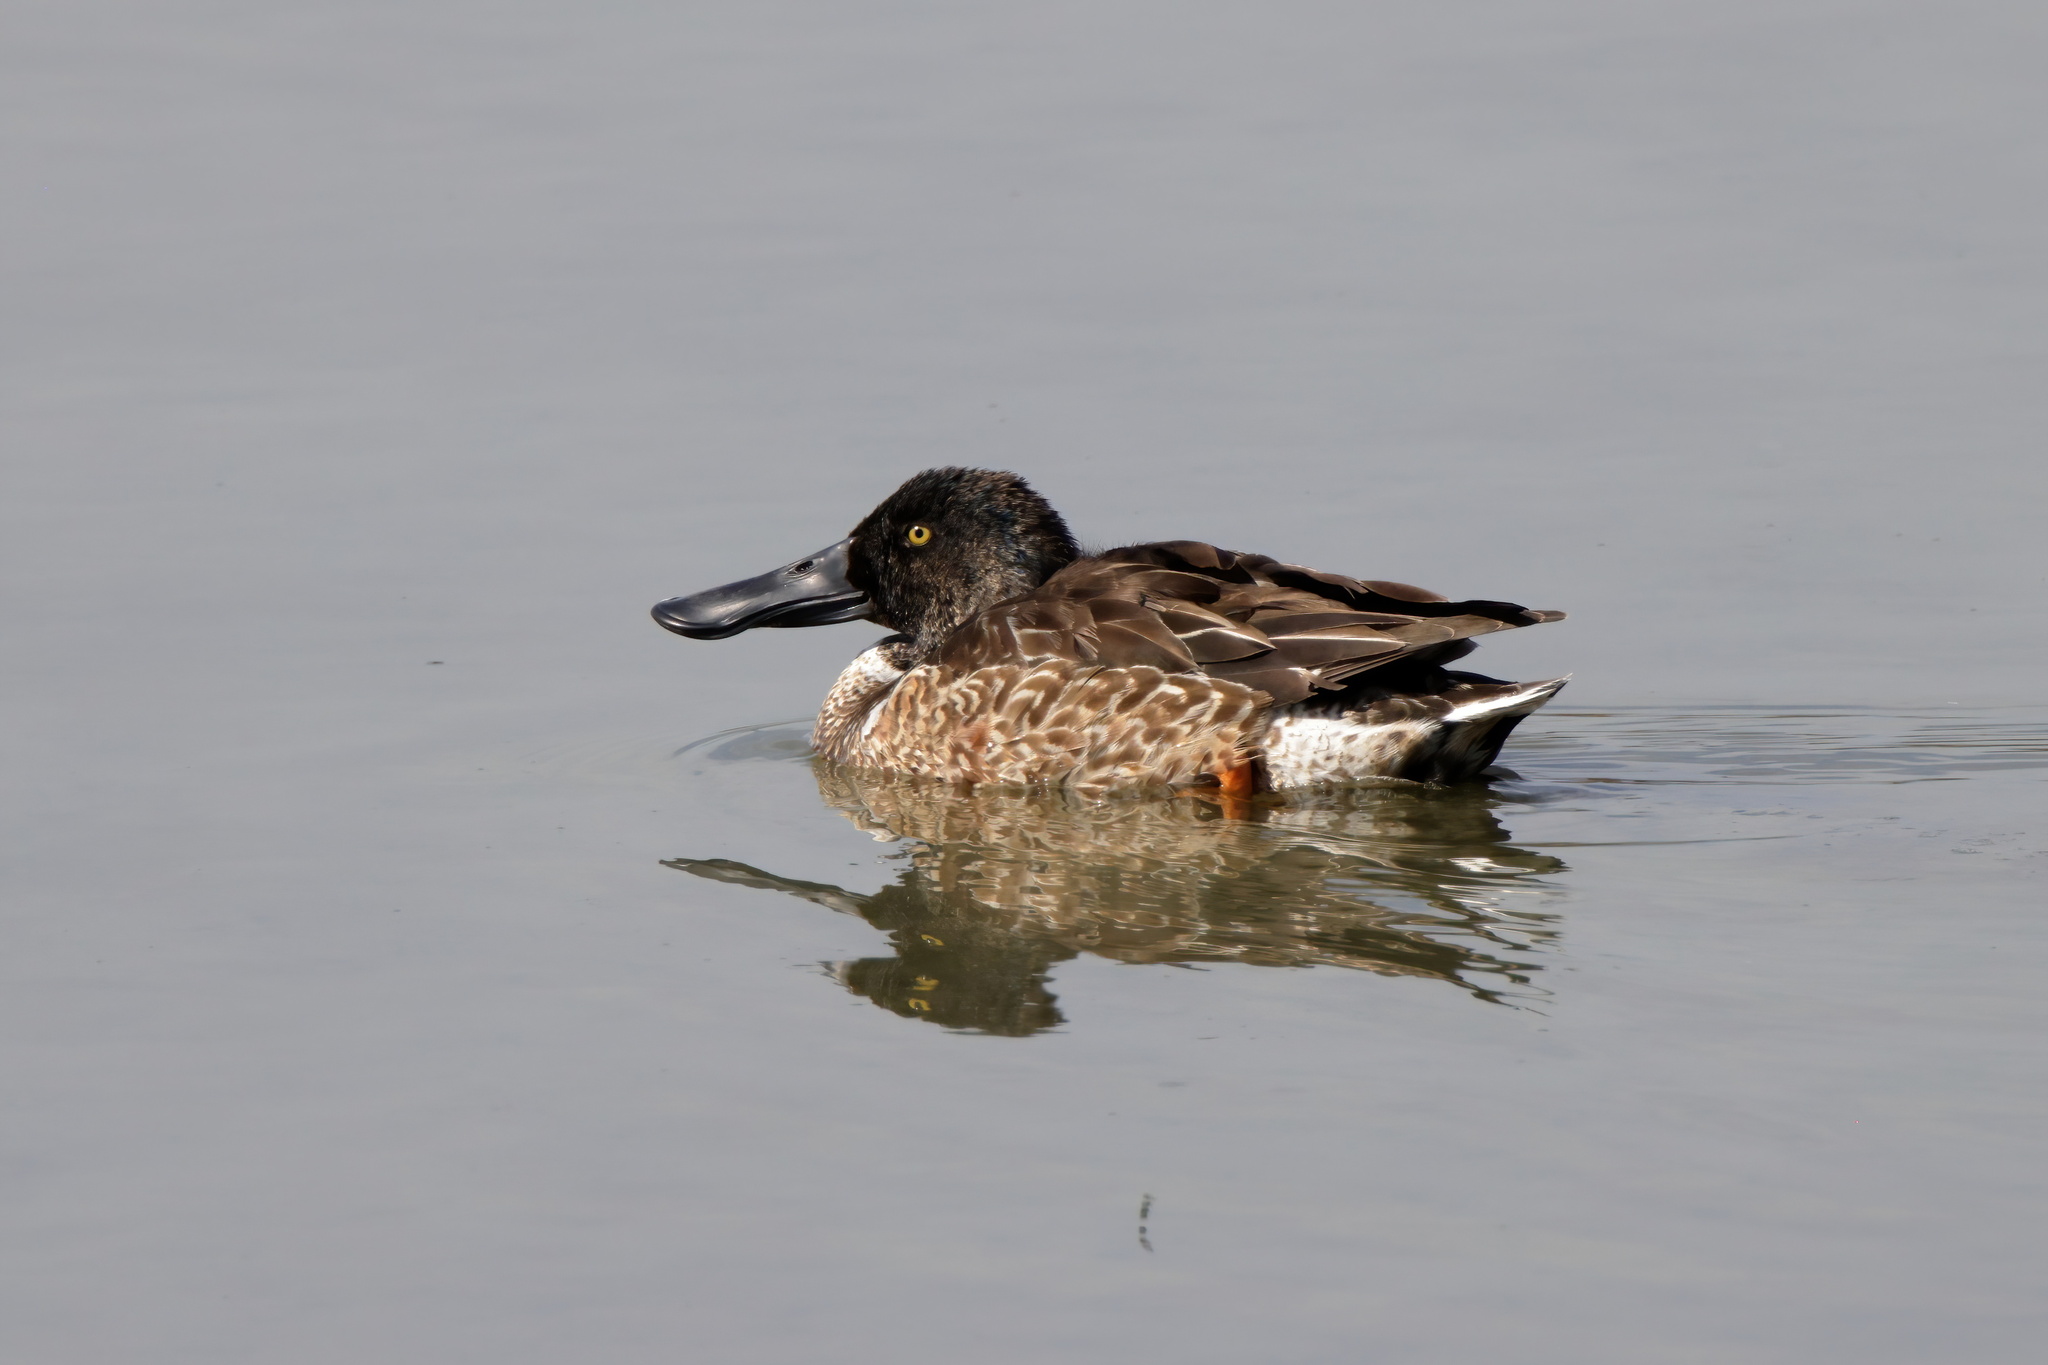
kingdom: Animalia
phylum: Chordata
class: Aves
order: Anseriformes
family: Anatidae
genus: Spatula
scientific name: Spatula clypeata
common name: Northern shoveler
